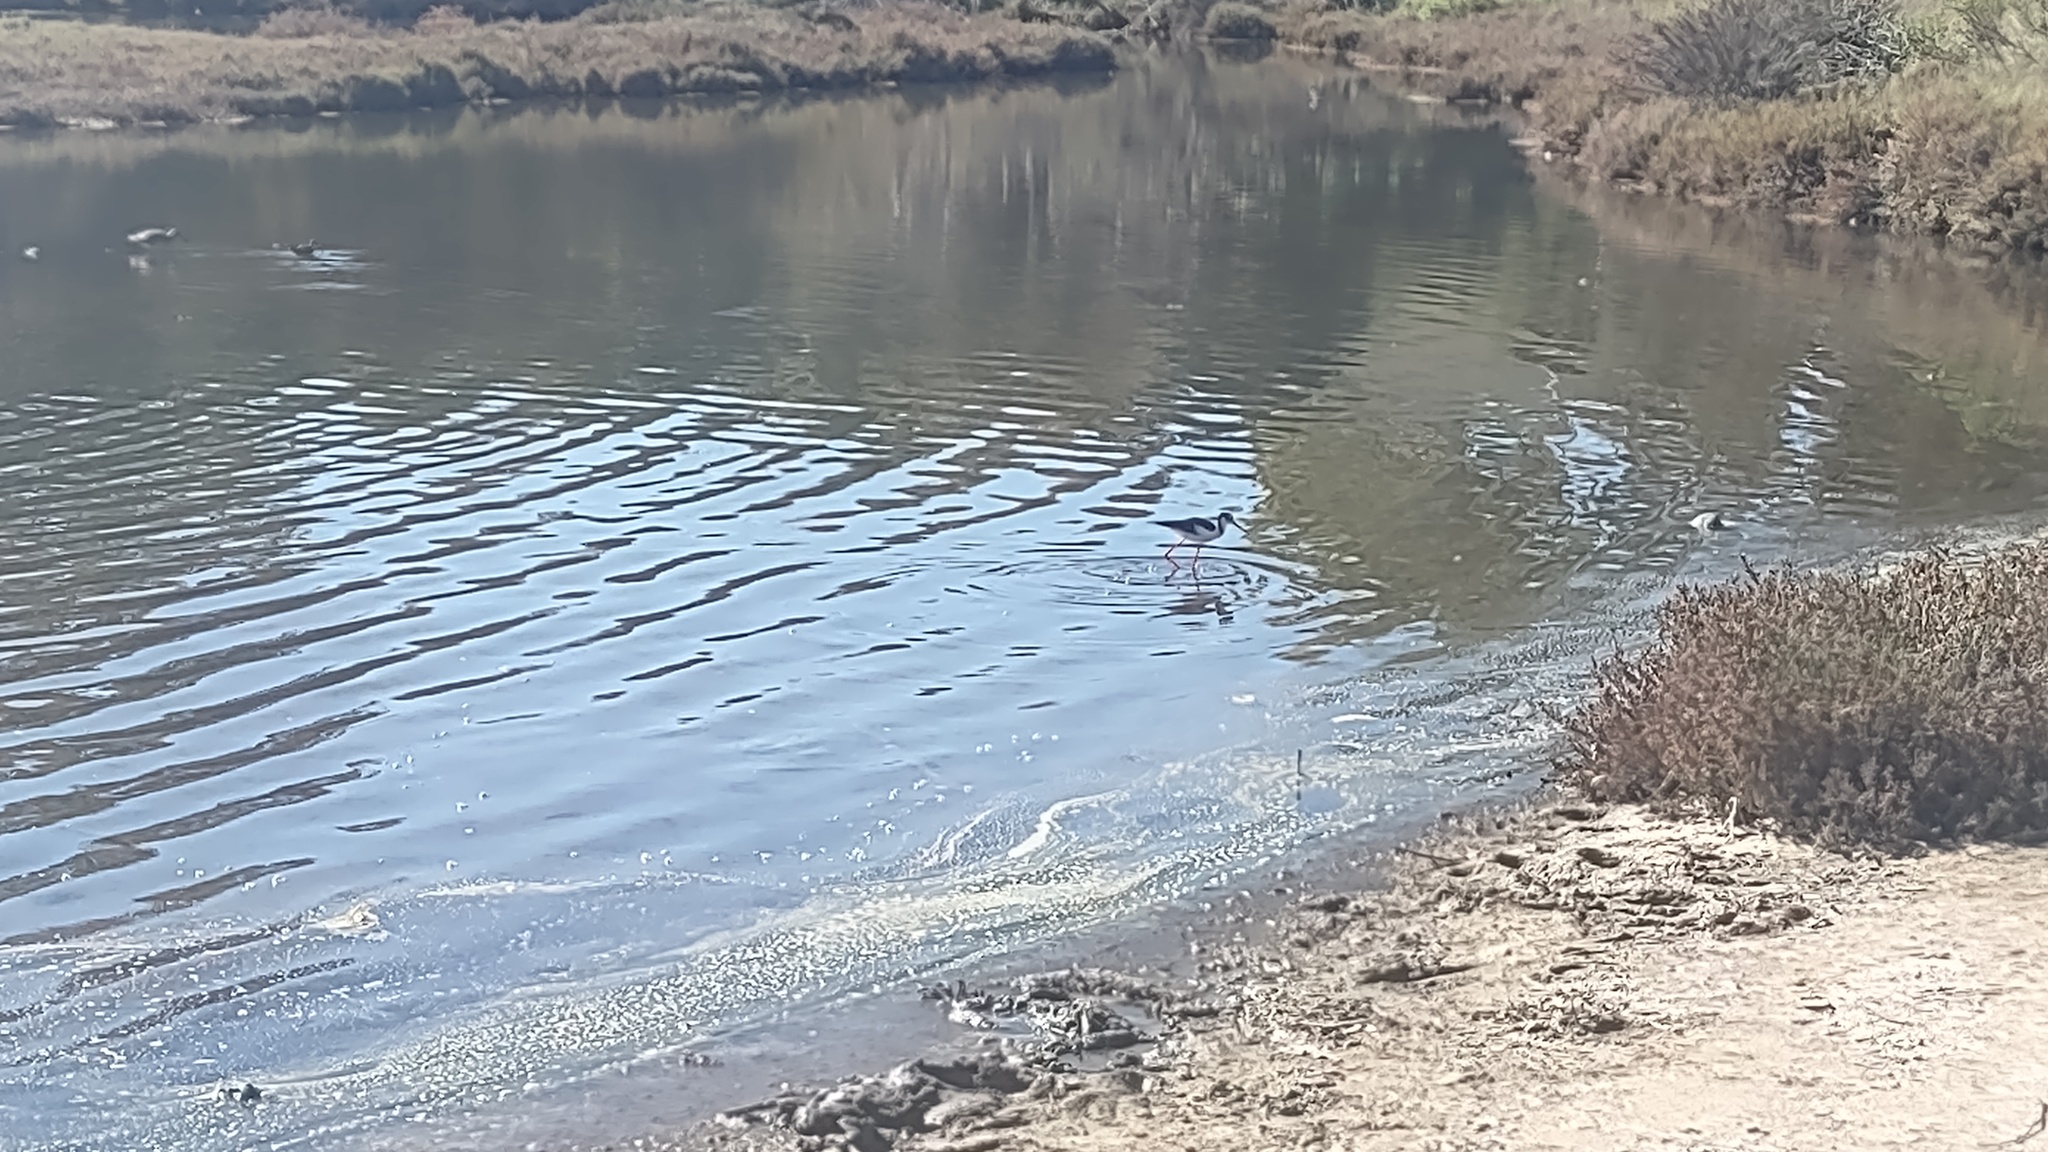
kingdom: Animalia
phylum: Chordata
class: Aves
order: Charadriiformes
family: Recurvirostridae
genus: Himantopus
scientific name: Himantopus mexicanus
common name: Black-necked stilt
